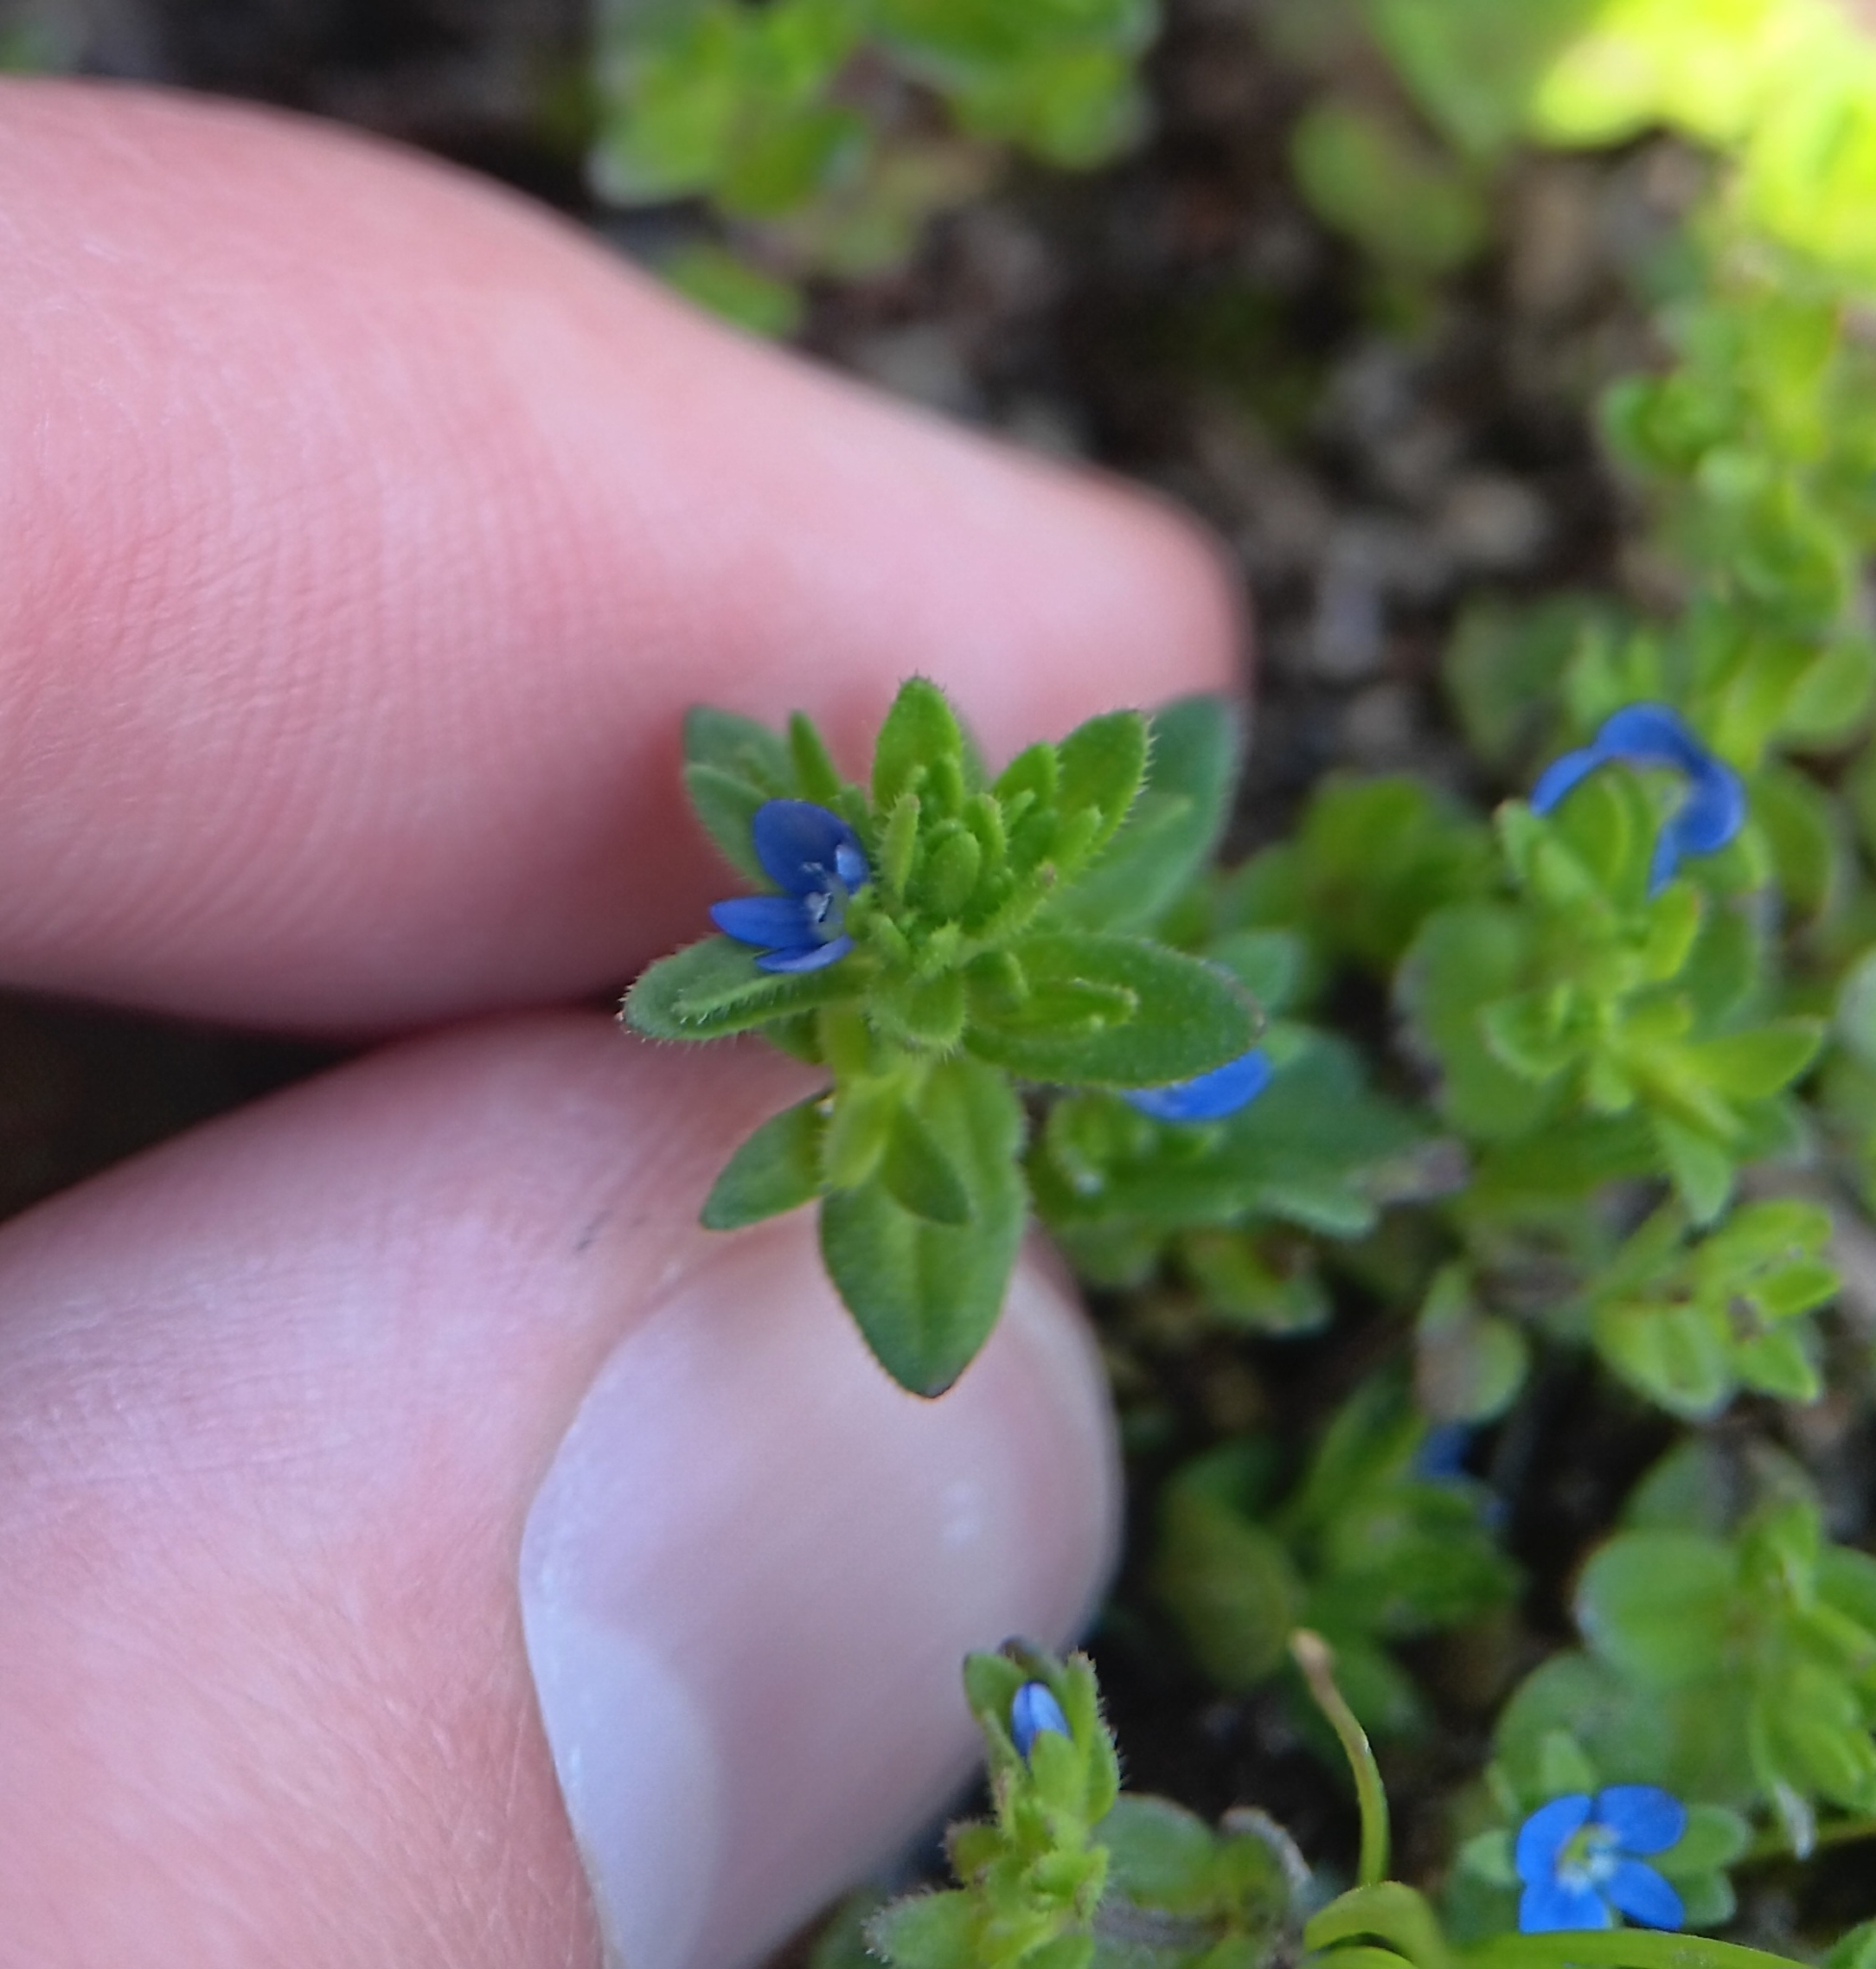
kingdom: Plantae
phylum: Tracheophyta
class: Magnoliopsida
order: Lamiales
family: Plantaginaceae
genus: Veronica
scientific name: Veronica arvensis
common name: Corn speedwell
